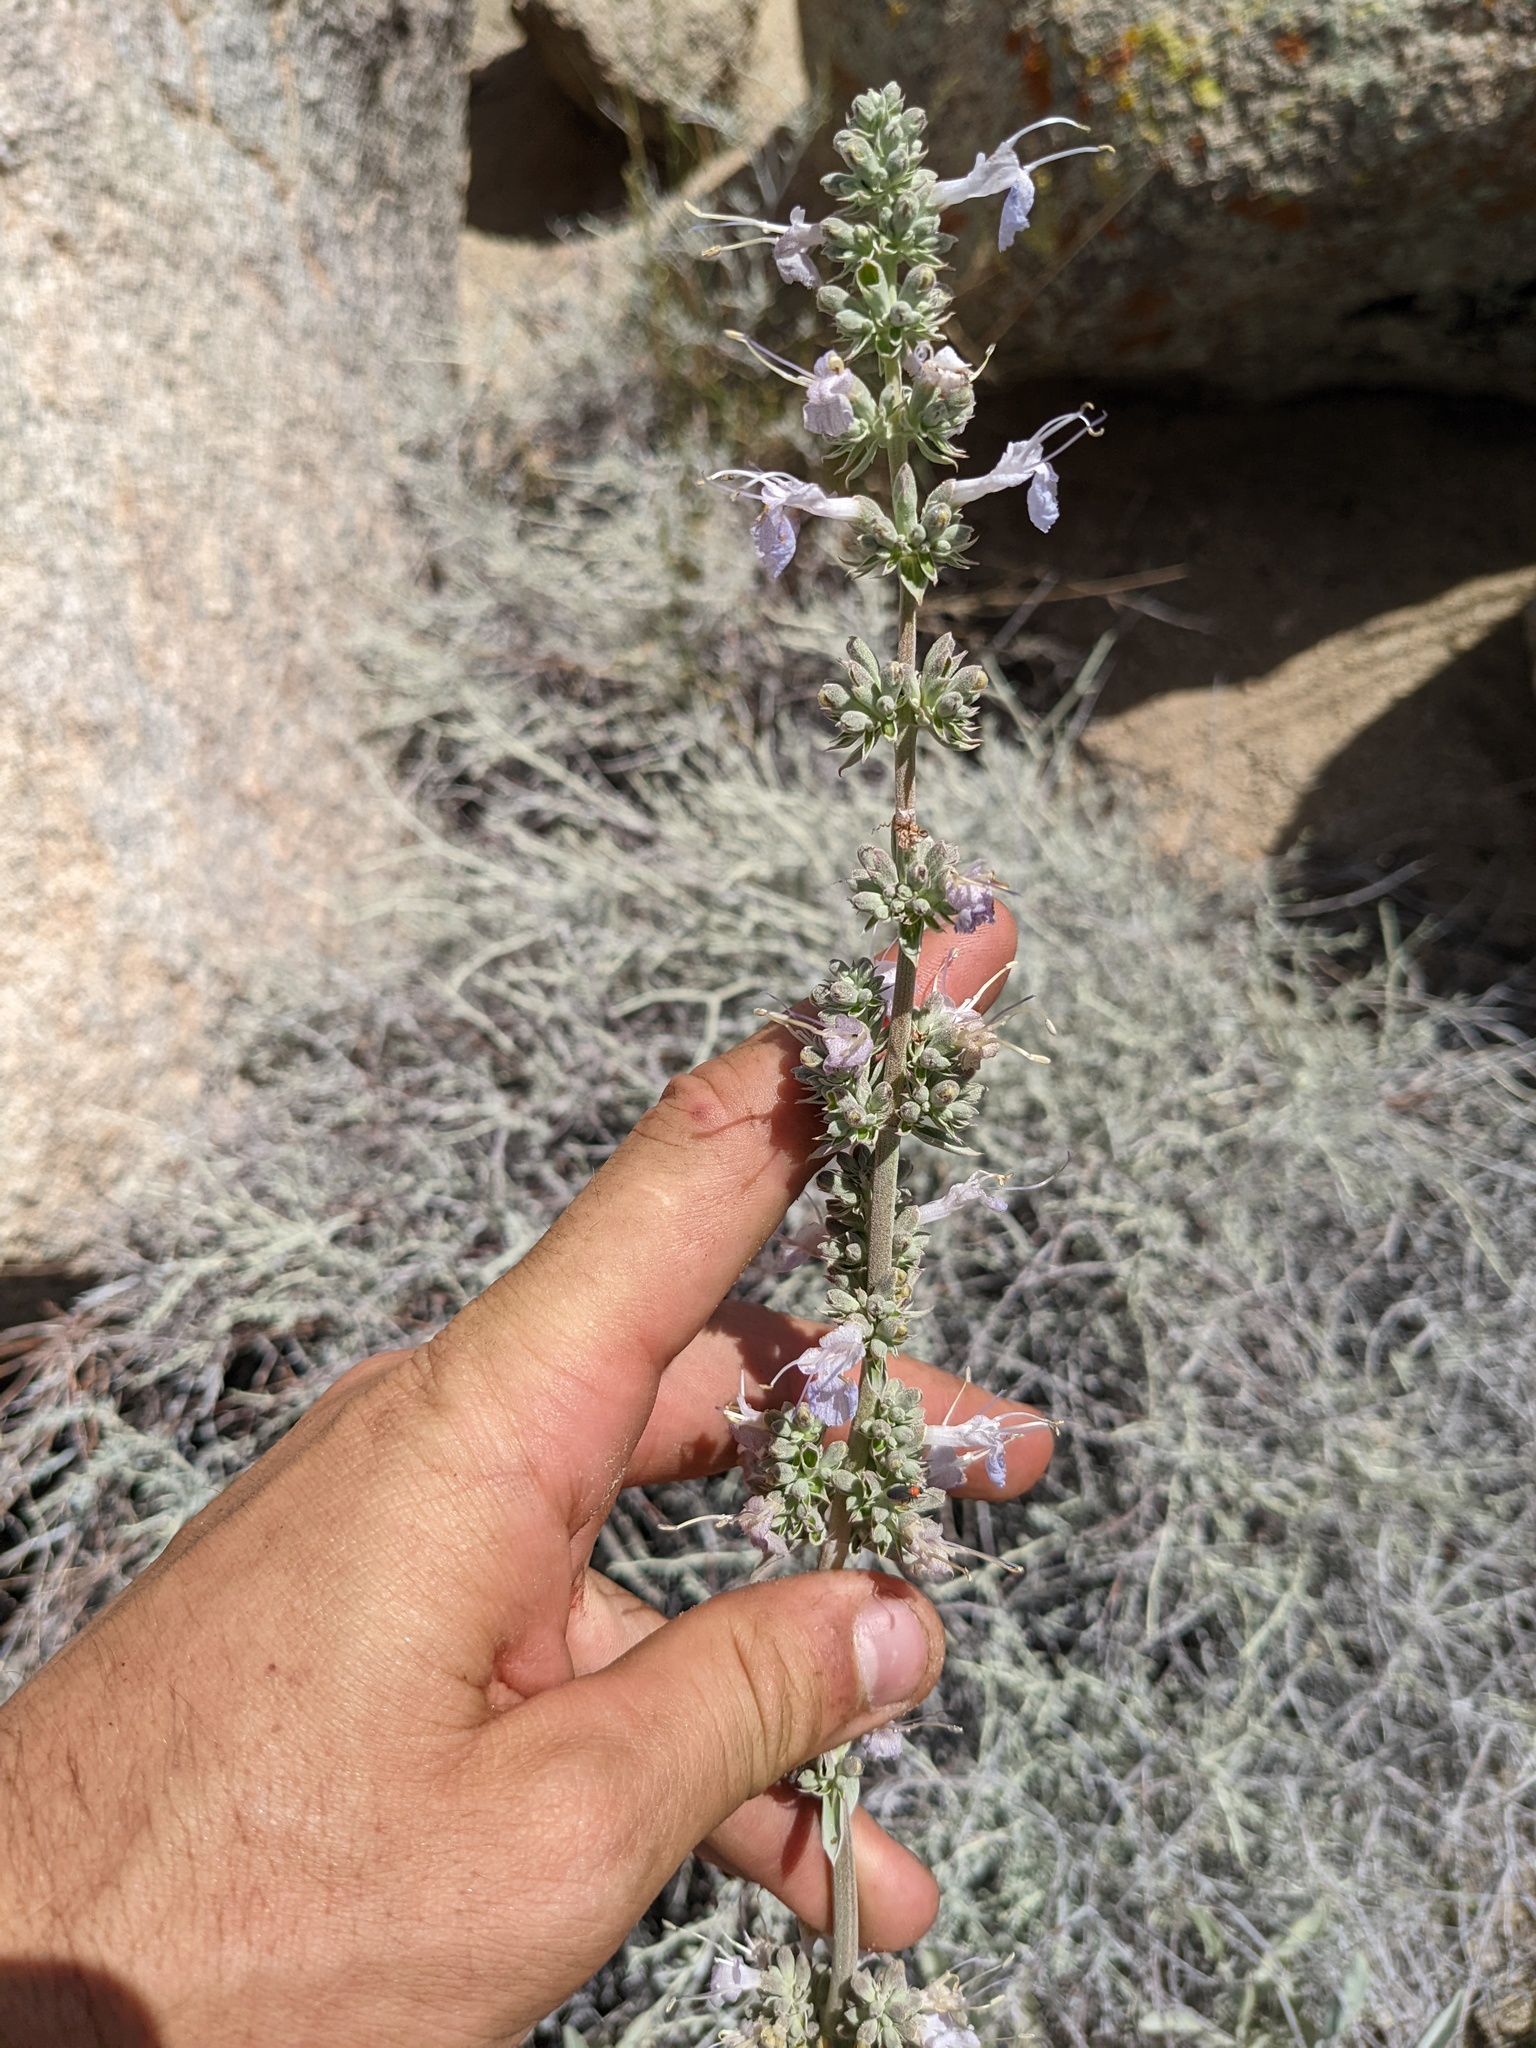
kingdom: Plantae
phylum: Tracheophyta
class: Magnoliopsida
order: Lamiales
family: Lamiaceae
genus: Salvia
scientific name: Salvia apiana
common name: White sage
